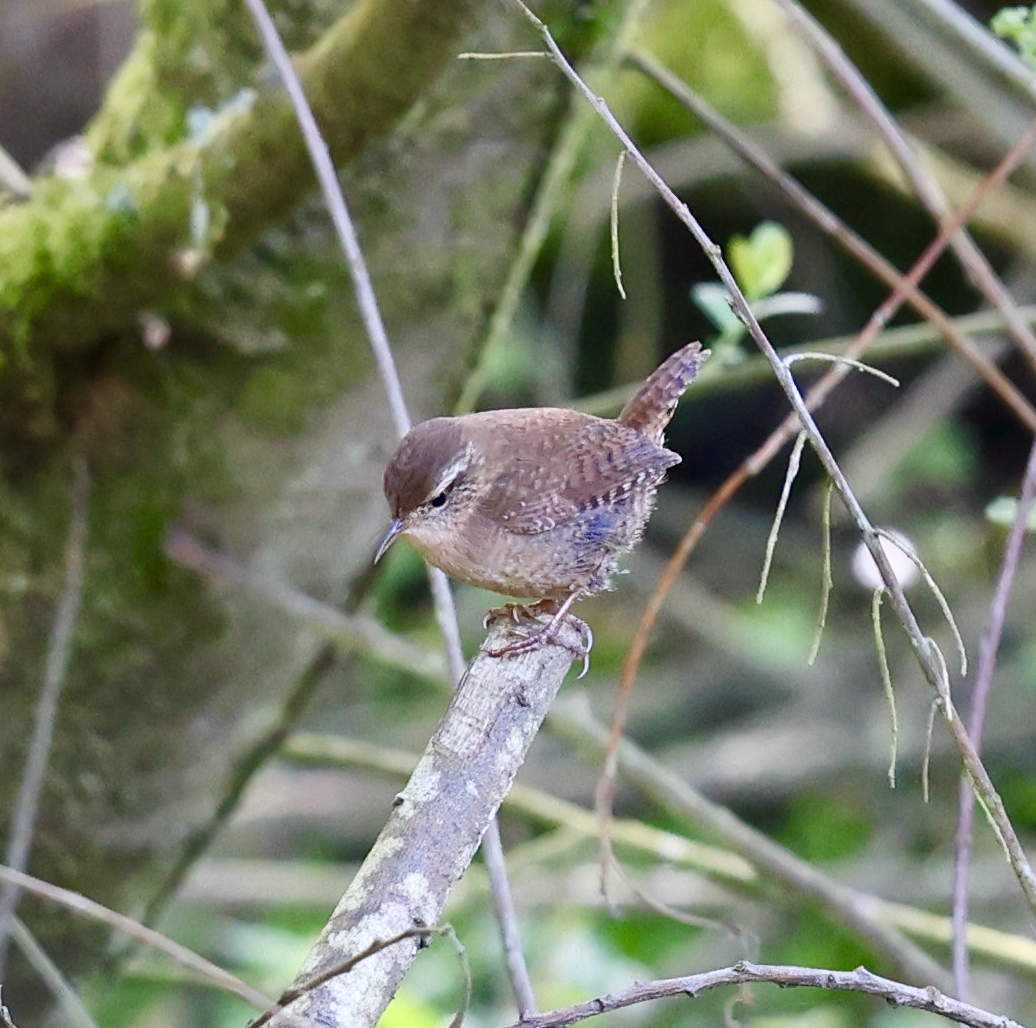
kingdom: Animalia
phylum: Chordata
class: Aves
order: Passeriformes
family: Troglodytidae
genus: Troglodytes
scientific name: Troglodytes troglodytes
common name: Eurasian wren
